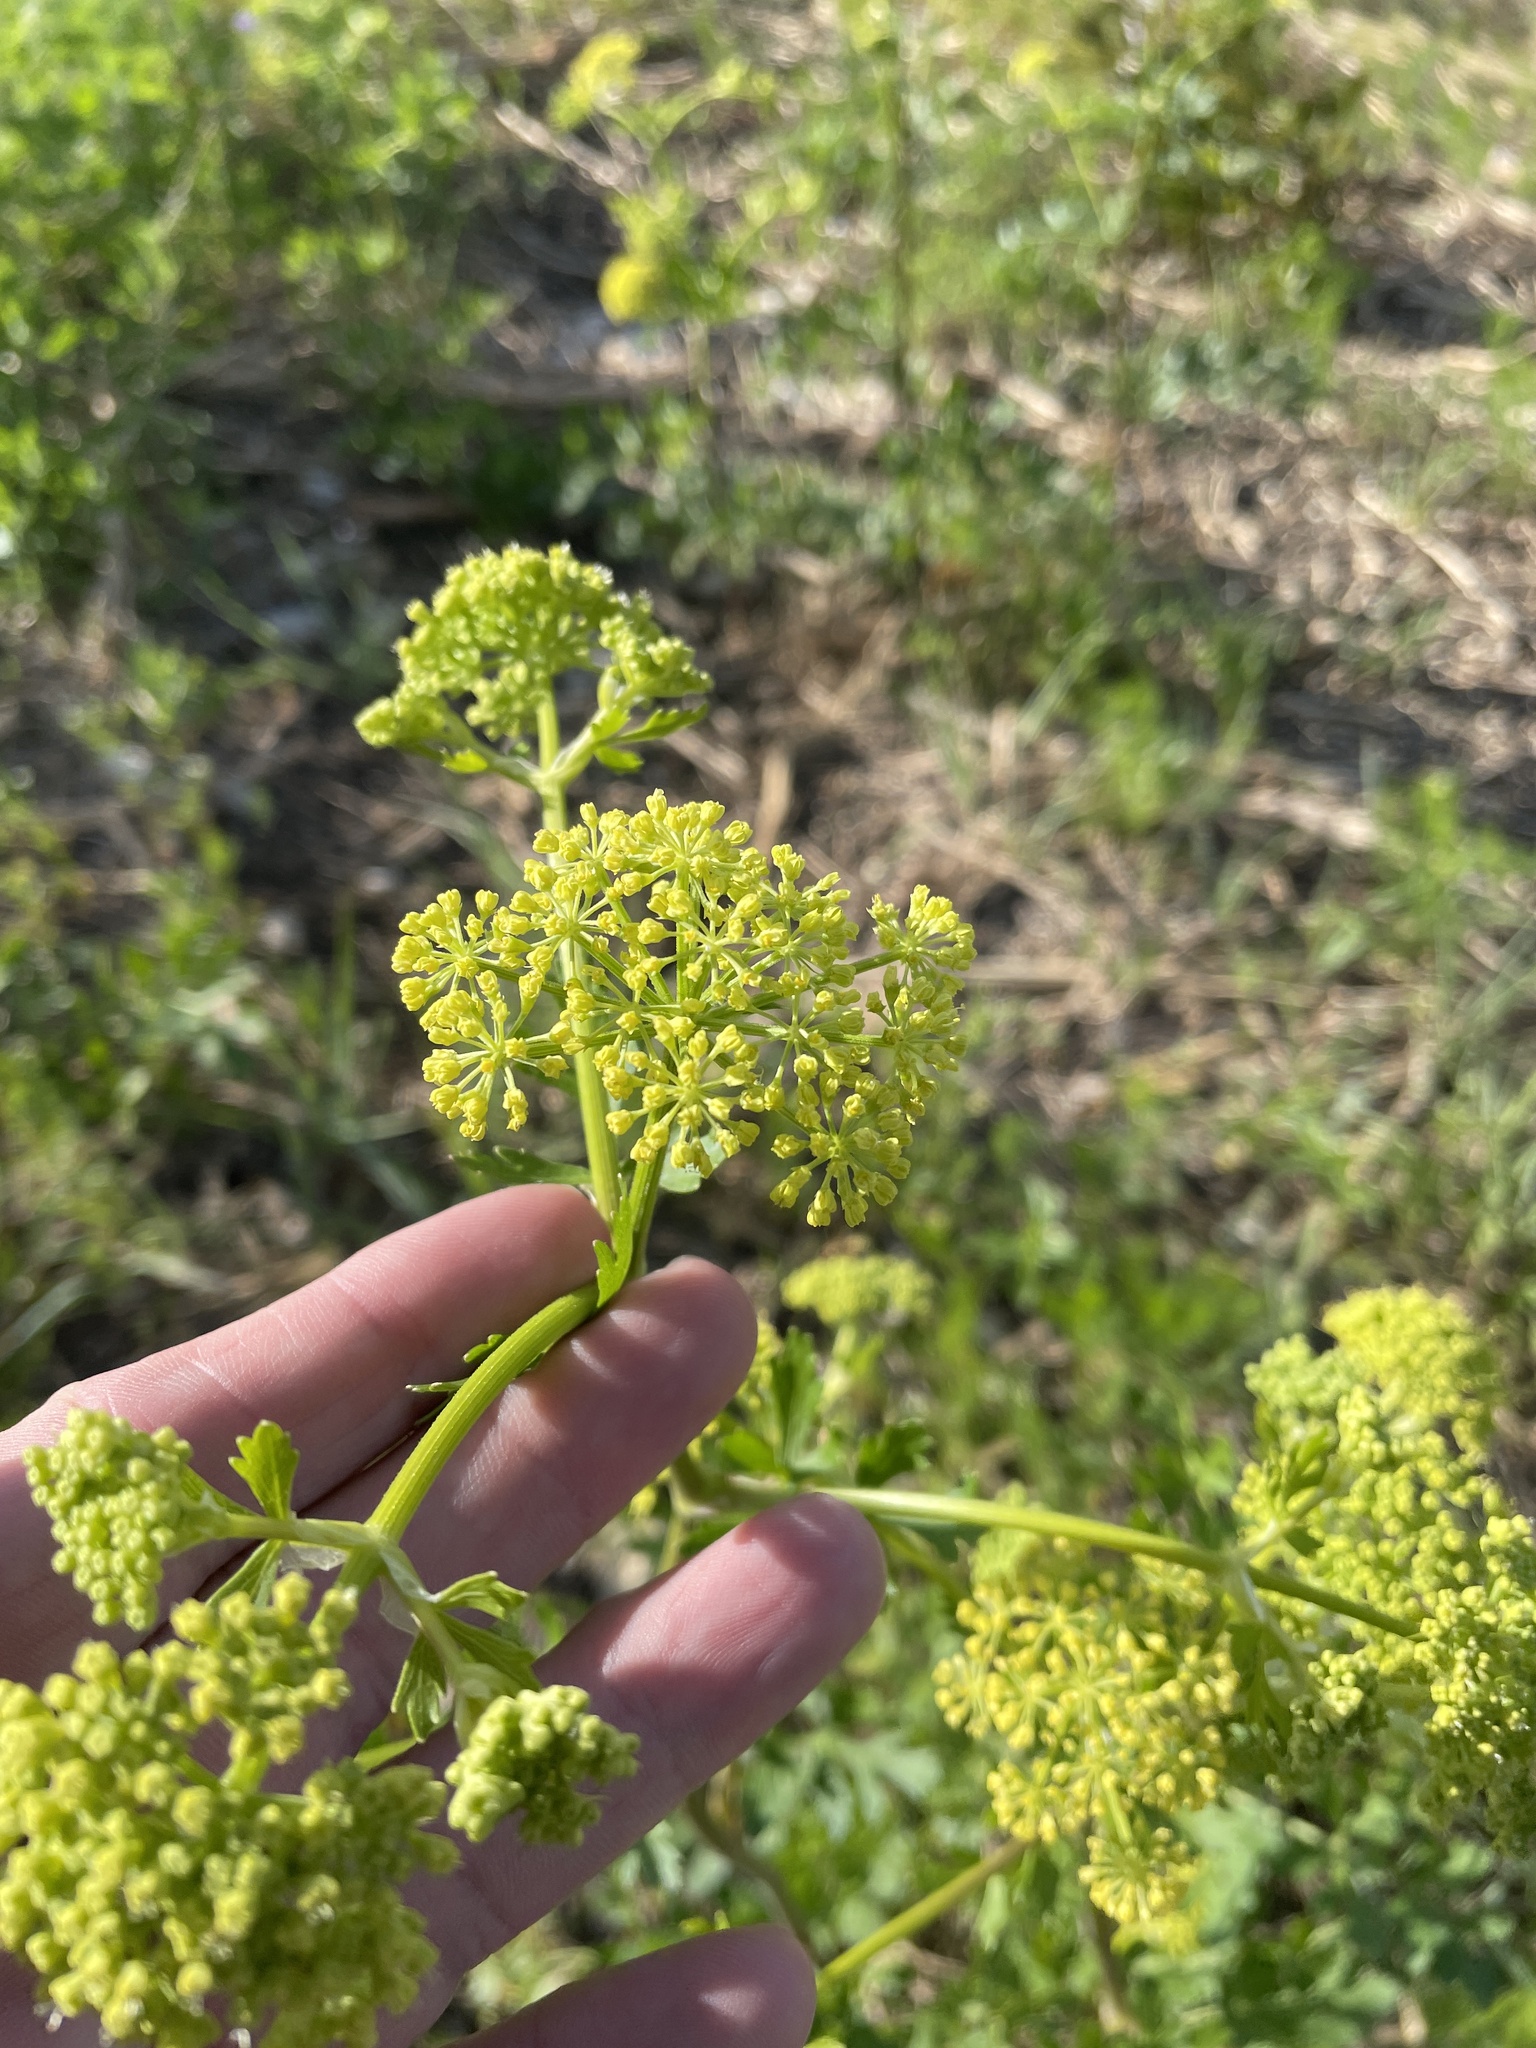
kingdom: Plantae
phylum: Tracheophyta
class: Magnoliopsida
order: Apiales
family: Apiaceae
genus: Polytaenia
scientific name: Polytaenia texana
